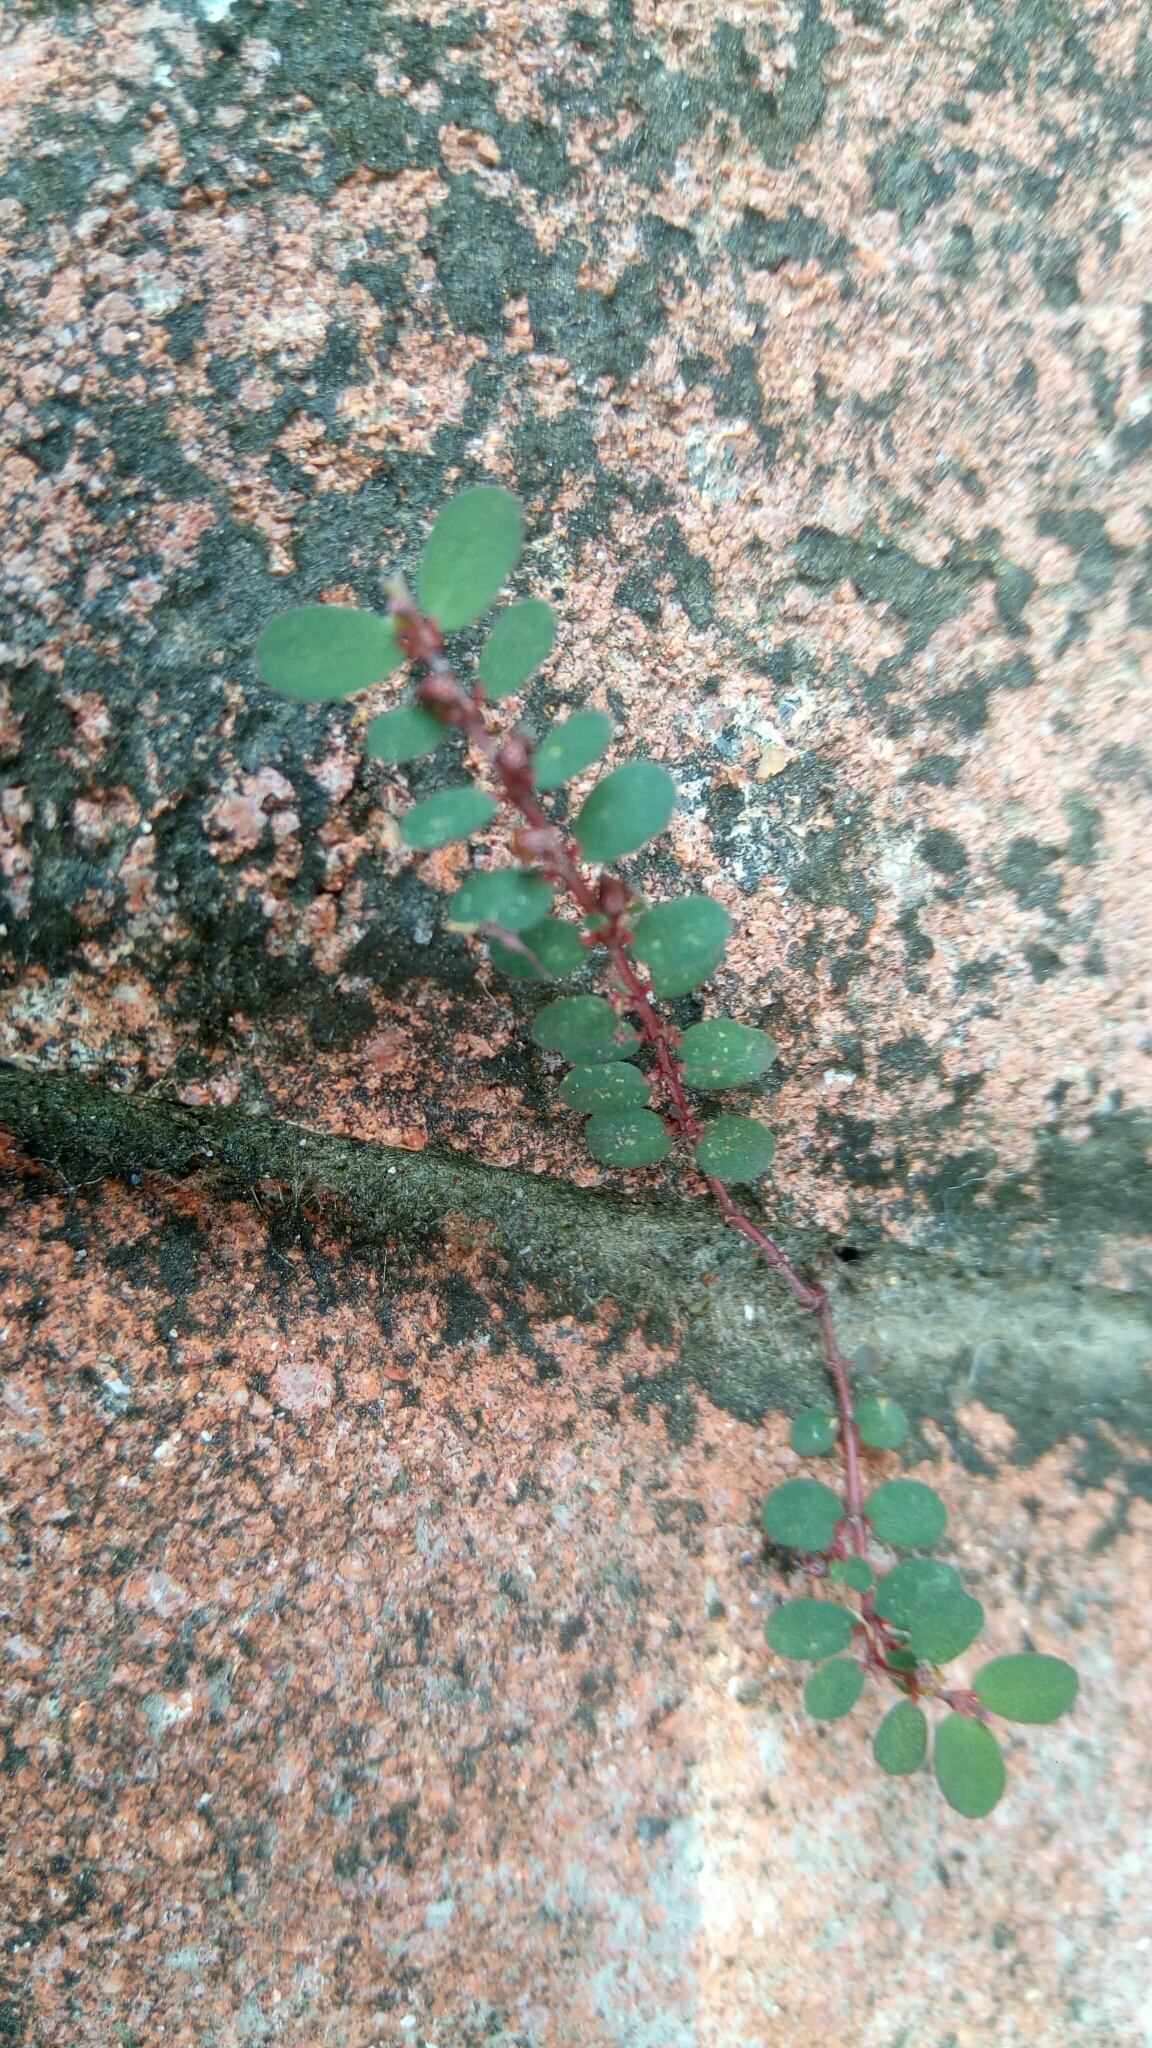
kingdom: Plantae
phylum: Tracheophyta
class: Magnoliopsida
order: Malpighiales
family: Euphorbiaceae
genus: Euphorbia
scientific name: Euphorbia prostrata
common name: Prostrate sandmat
